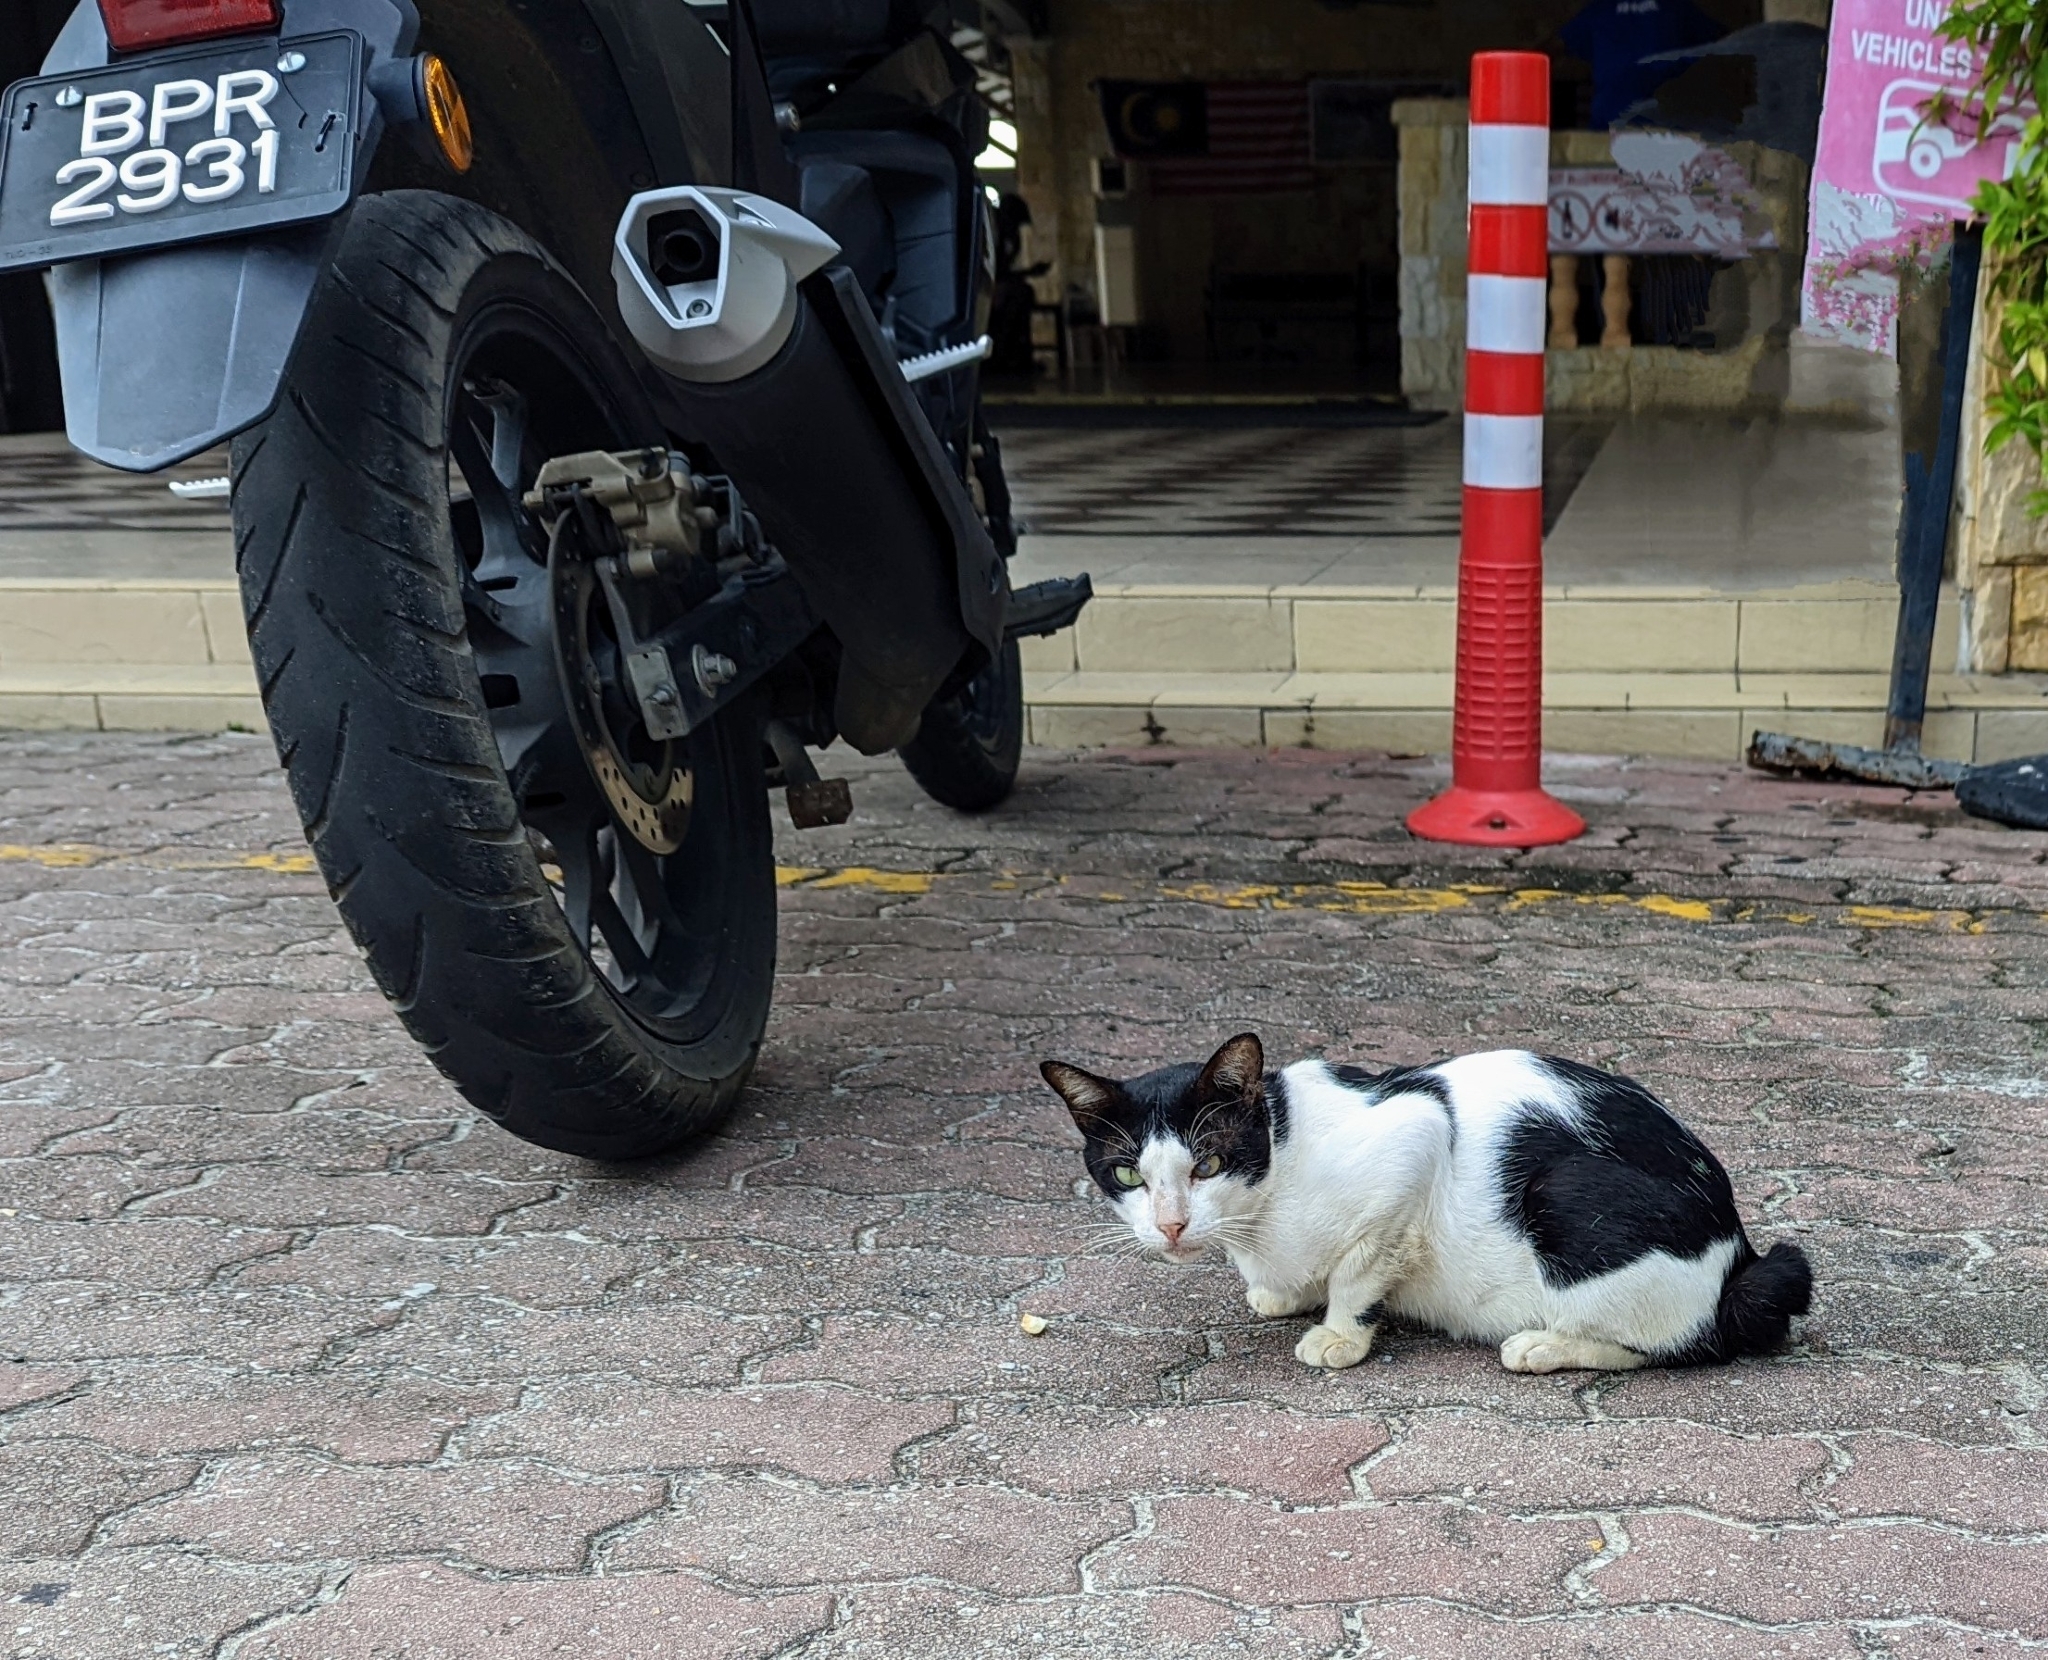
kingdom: Animalia
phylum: Chordata
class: Mammalia
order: Carnivora
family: Felidae
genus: Felis
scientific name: Felis catus
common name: Domestic cat
